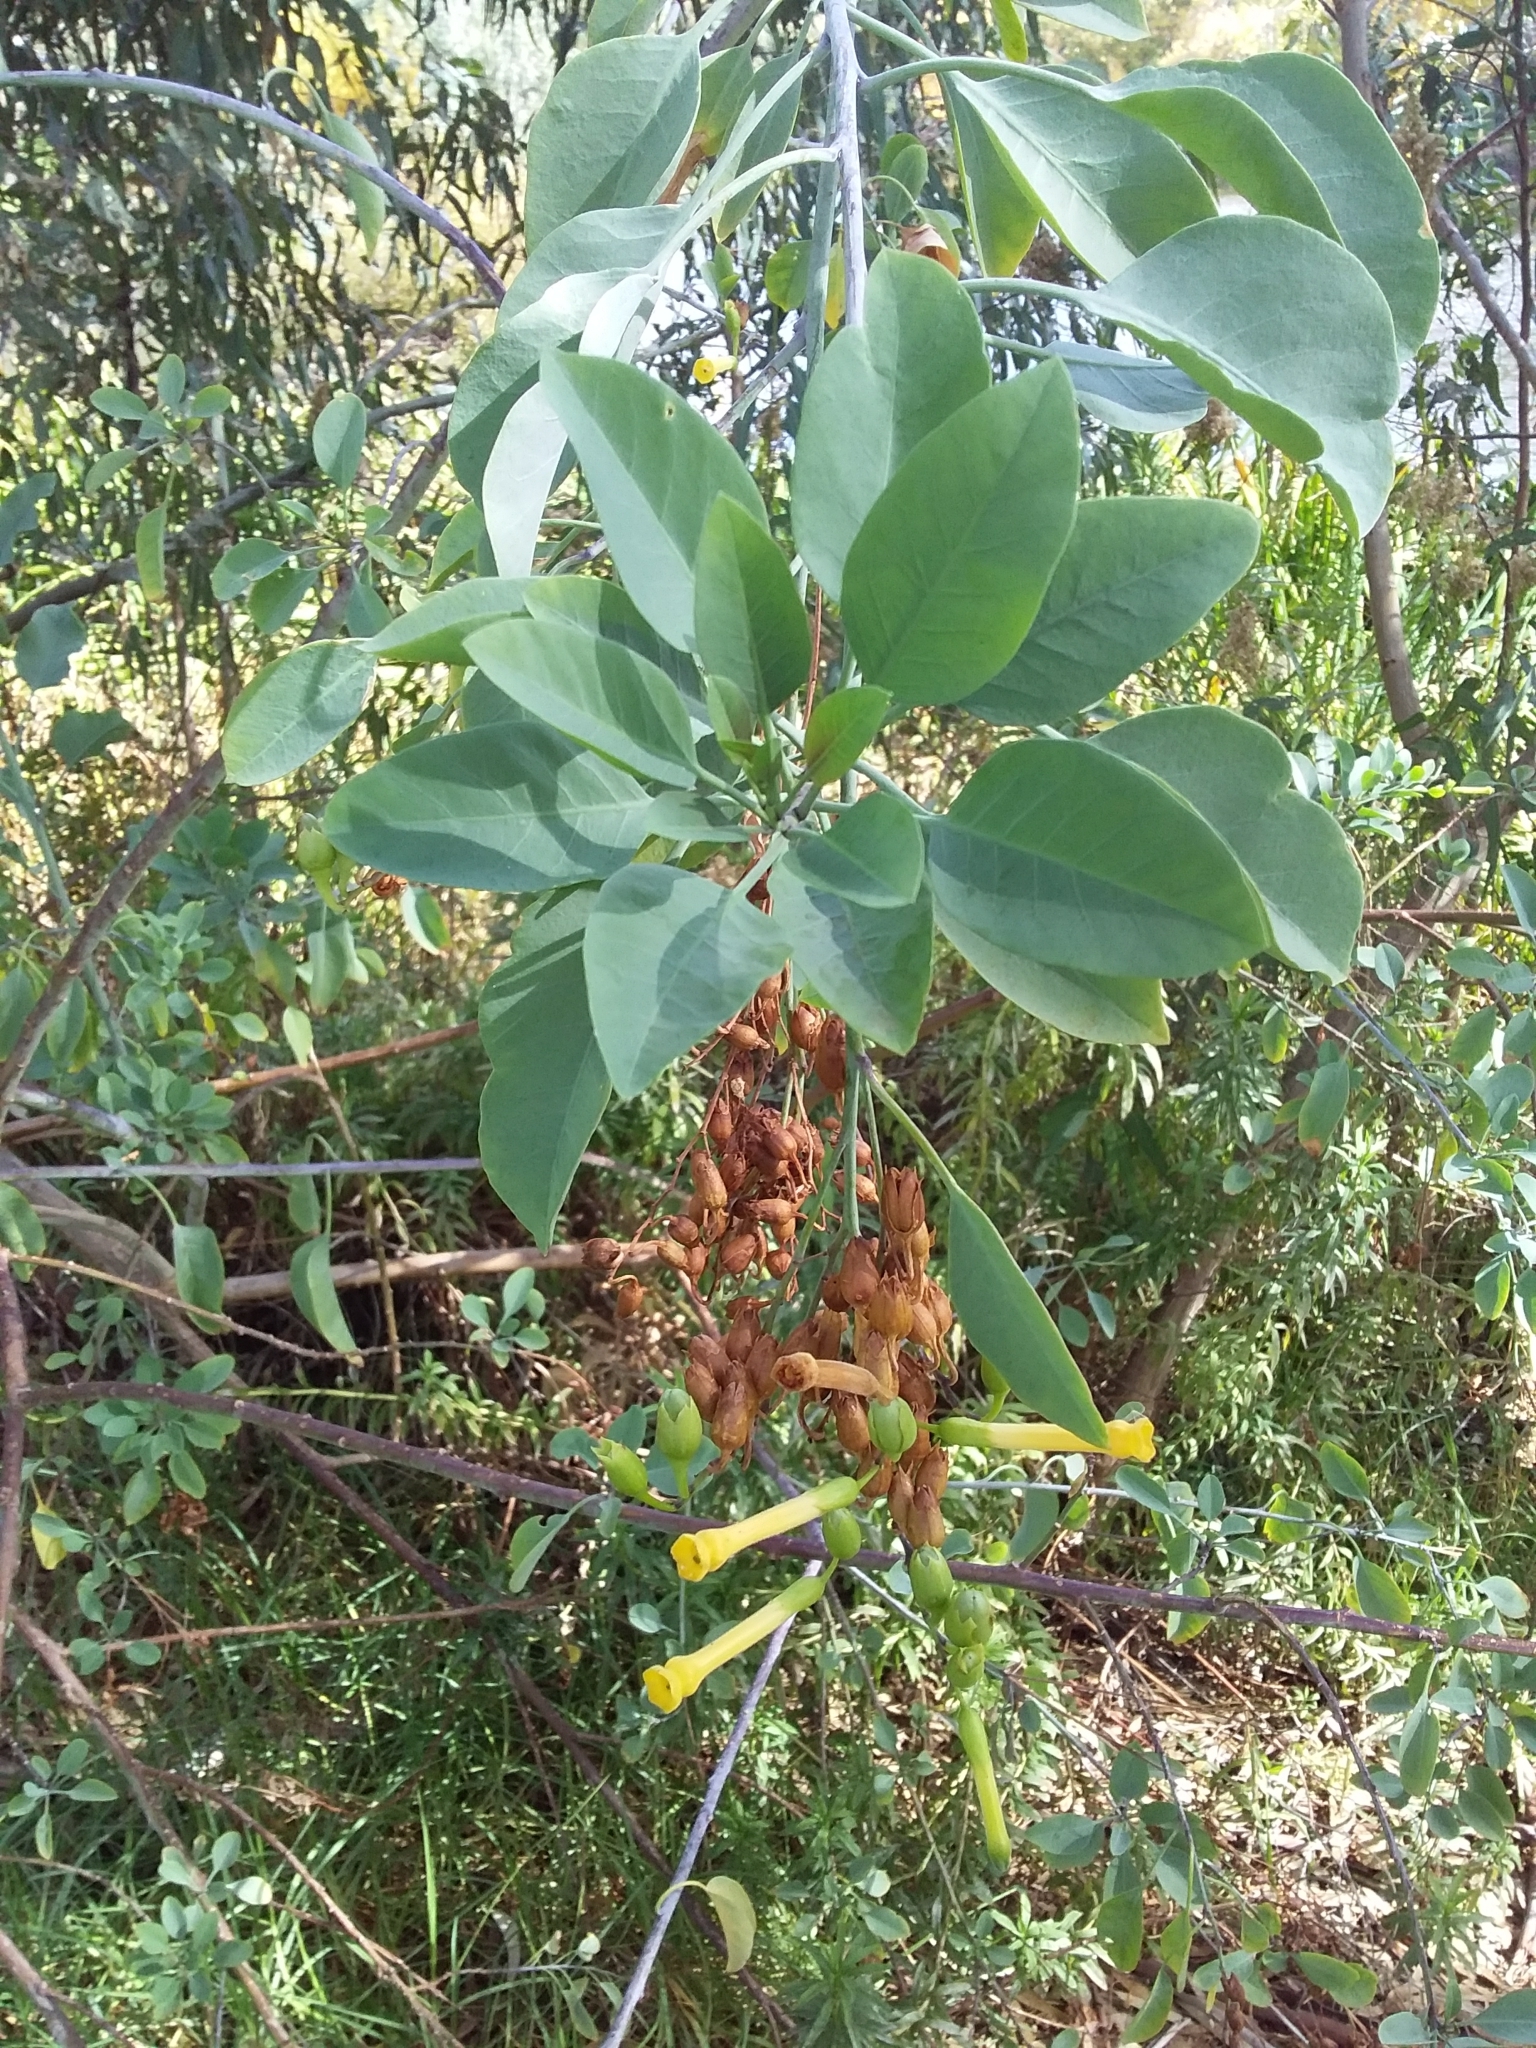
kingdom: Plantae
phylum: Tracheophyta
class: Magnoliopsida
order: Solanales
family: Solanaceae
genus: Nicotiana
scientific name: Nicotiana glauca
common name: Tree tobacco
